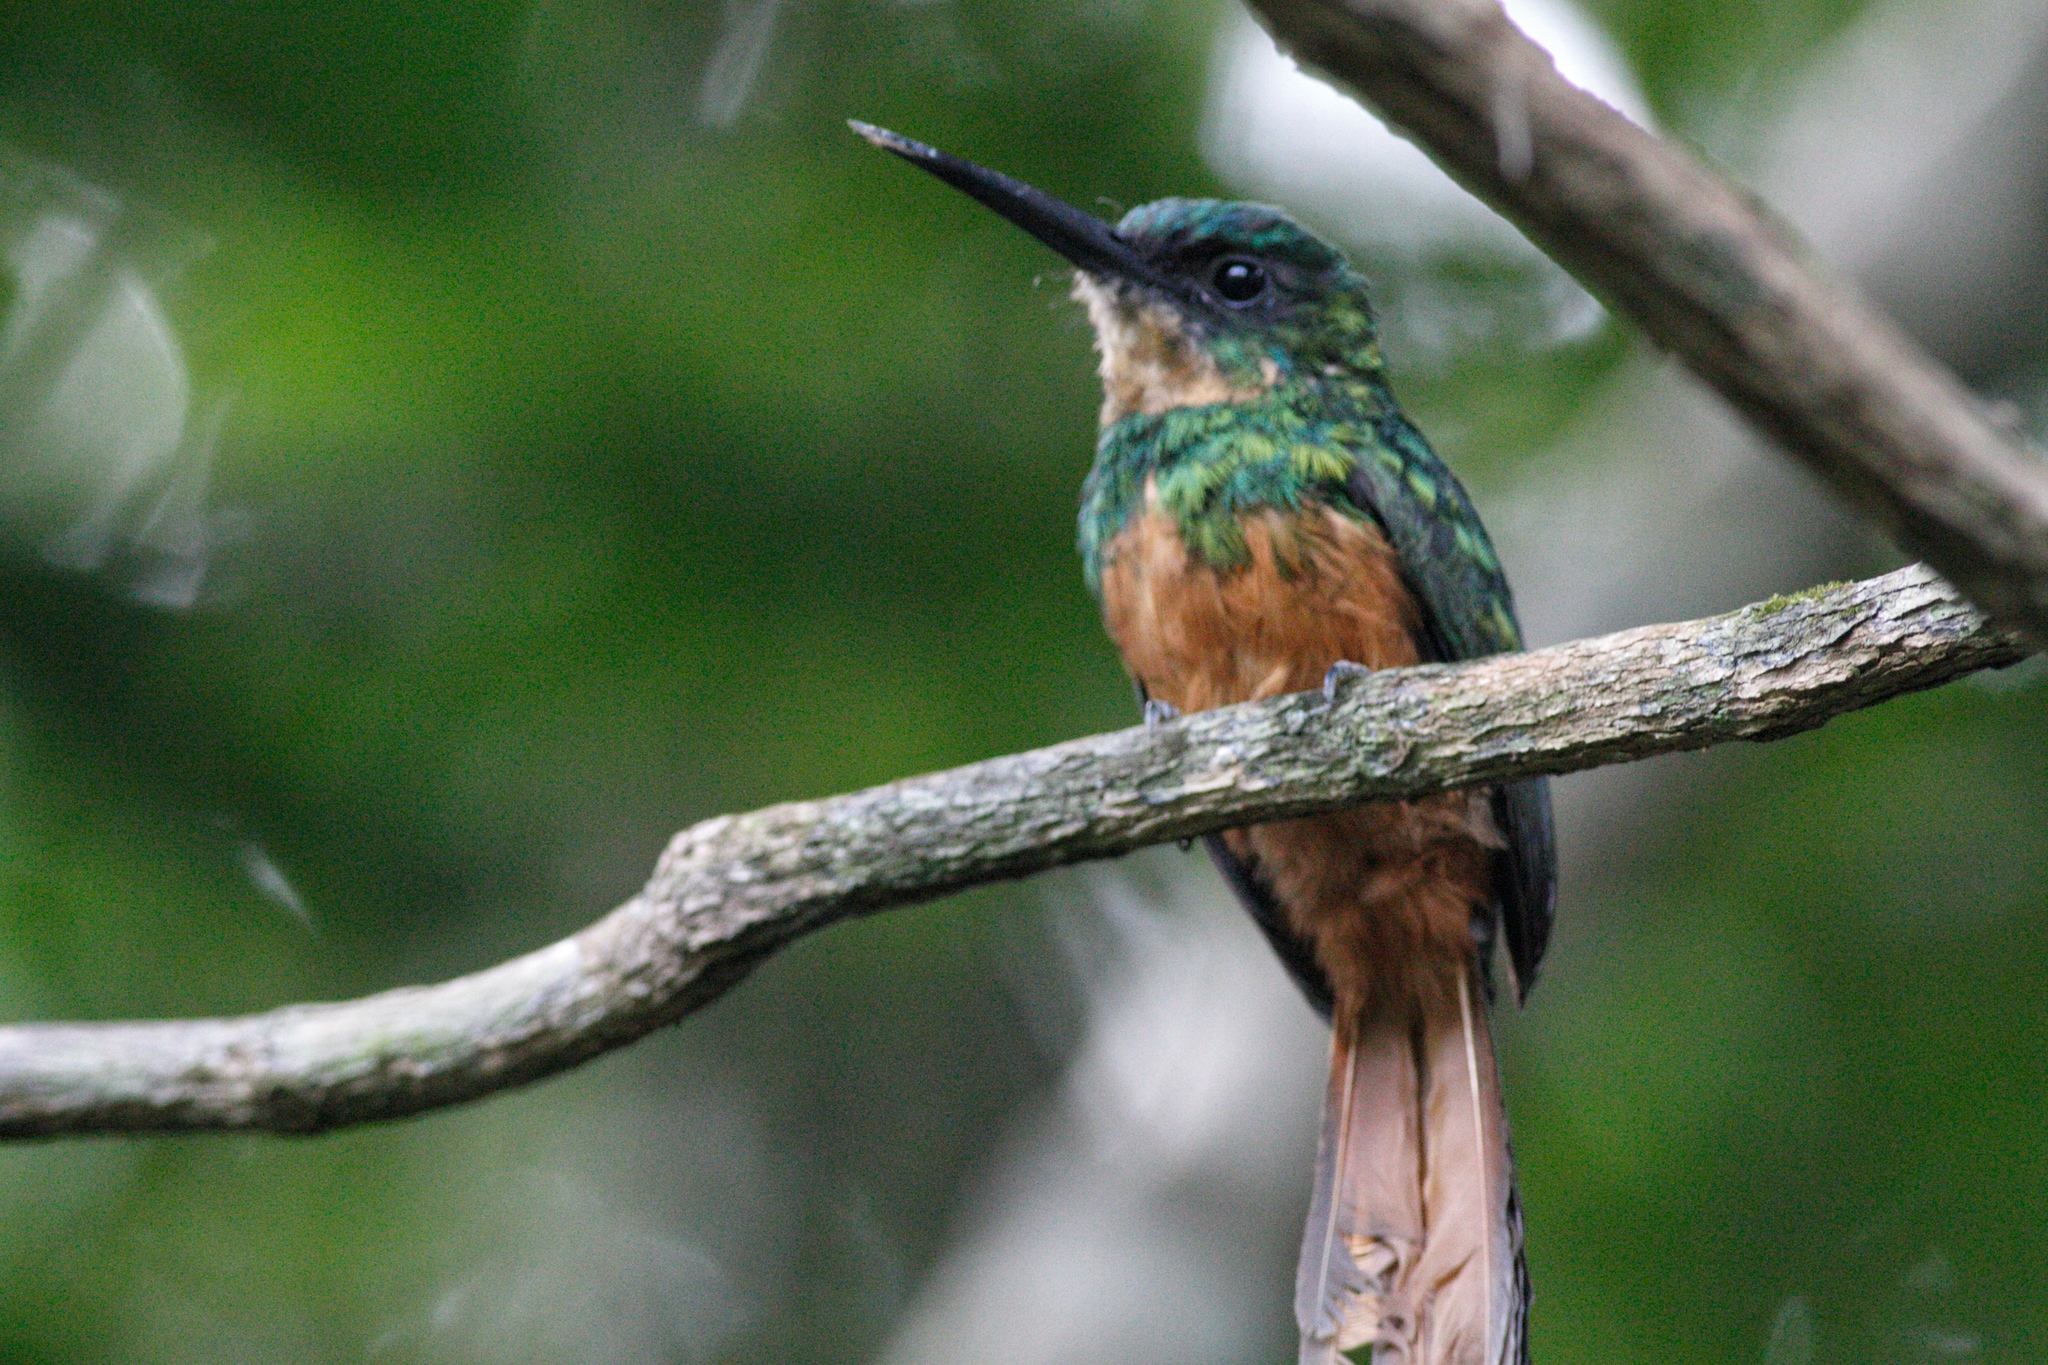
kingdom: Animalia
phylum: Chordata
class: Aves
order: Piciformes
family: Galbulidae
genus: Galbula
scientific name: Galbula ruficauda
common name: Rufous-tailed jacamar
